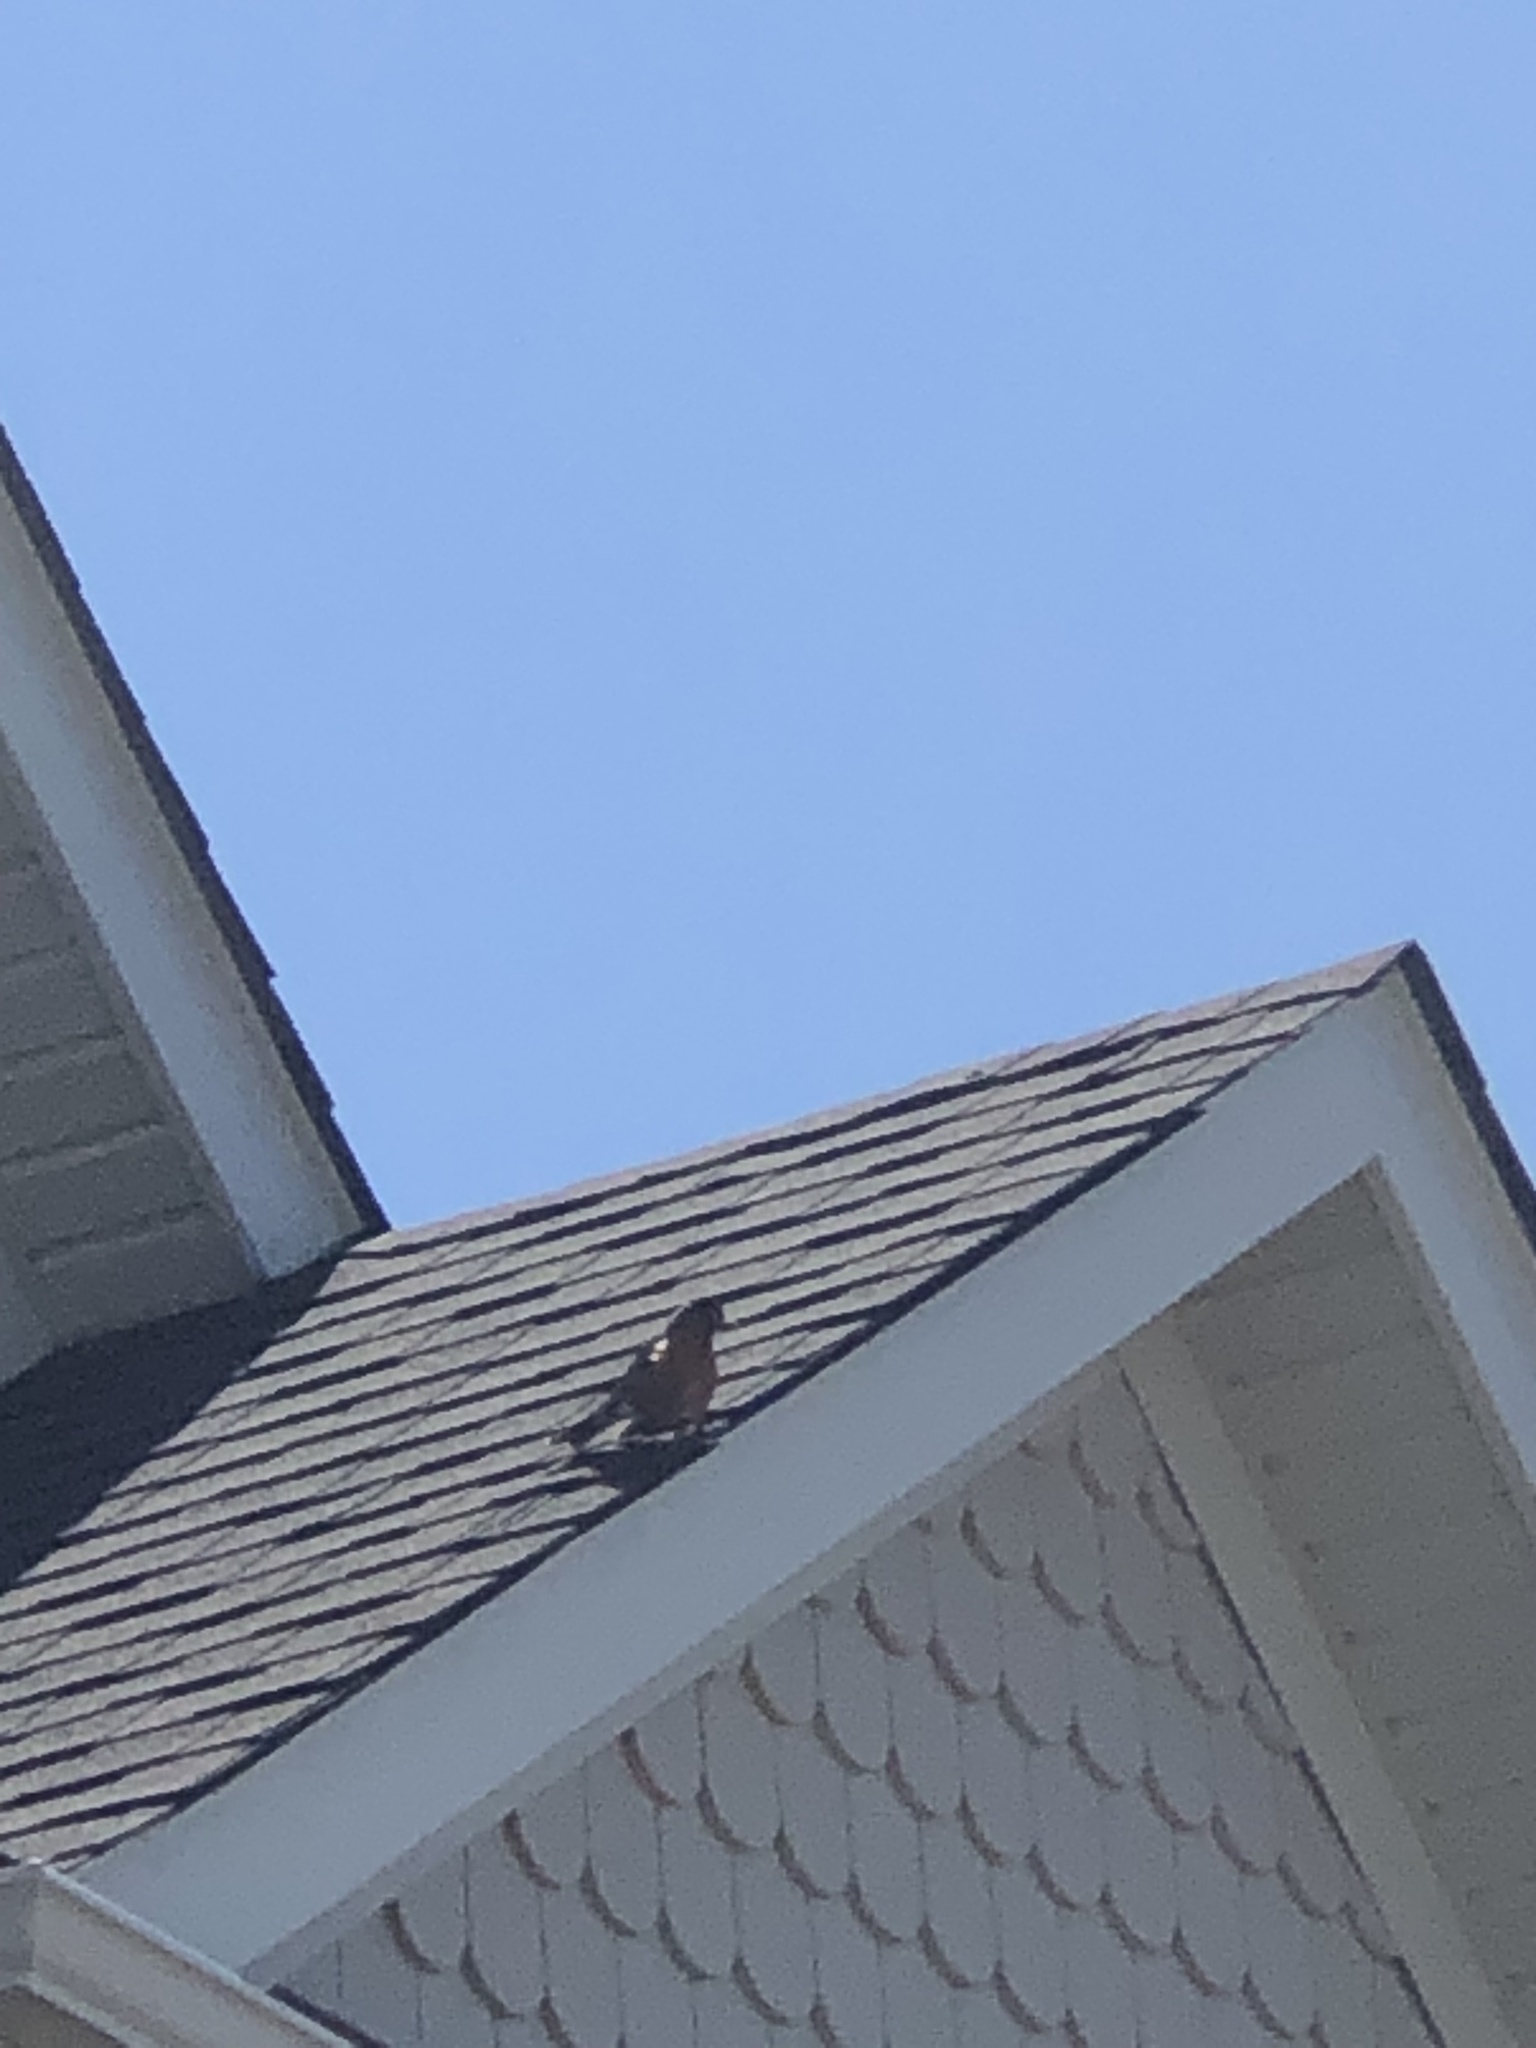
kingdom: Animalia
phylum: Chordata
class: Aves
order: Passeriformes
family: Turdidae
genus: Turdus
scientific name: Turdus migratorius
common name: American robin
